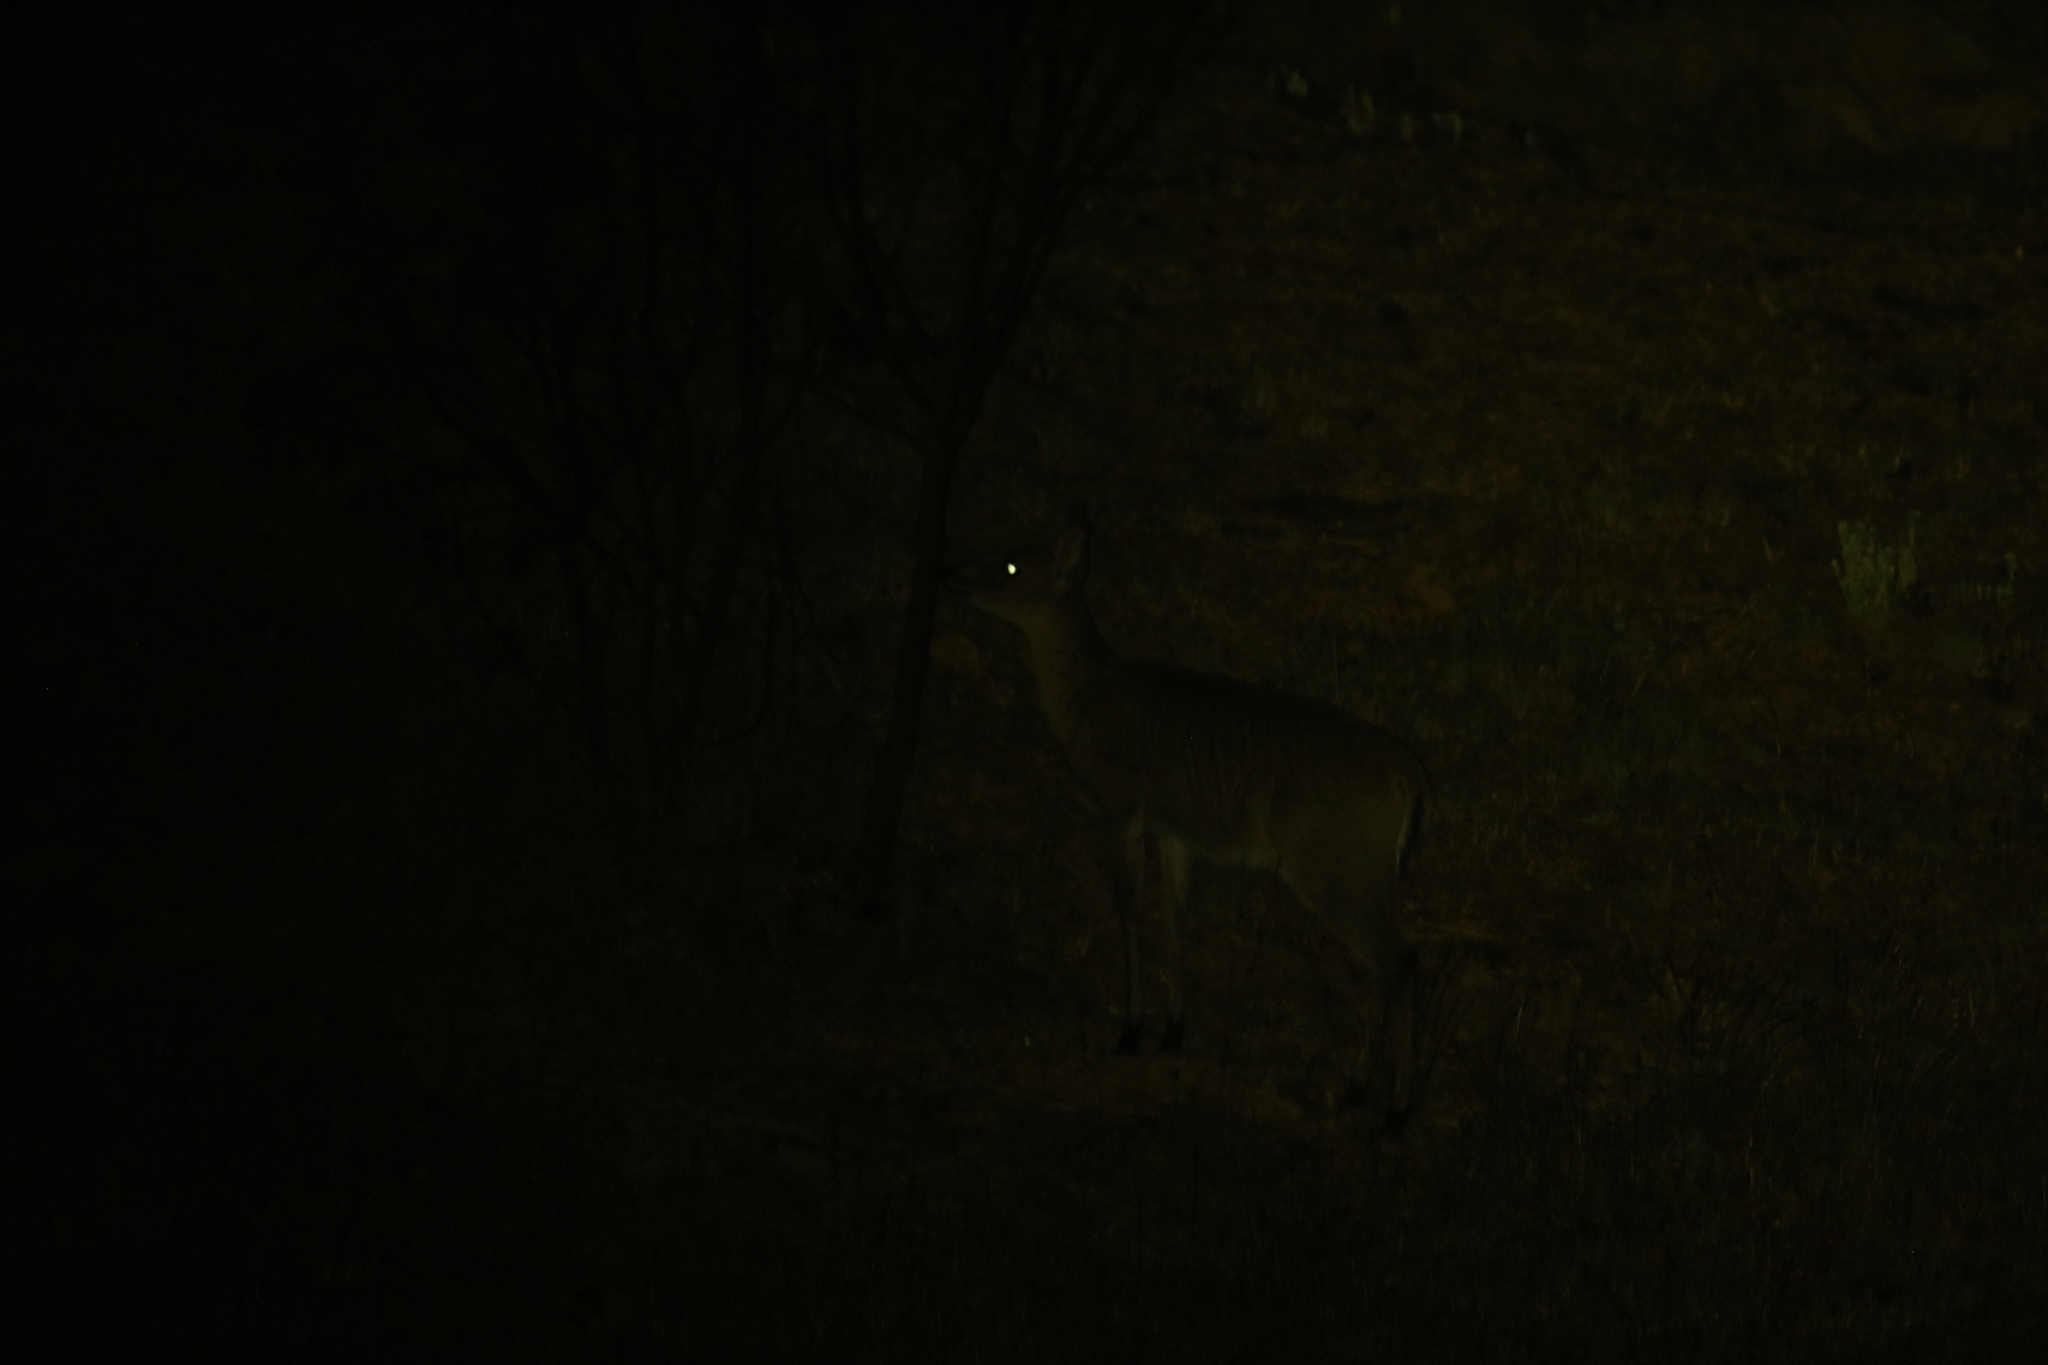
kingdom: Animalia
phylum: Chordata
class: Mammalia
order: Artiodactyla
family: Bovidae
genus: Sylvicapra
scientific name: Sylvicapra grimmia
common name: Bush duiker
